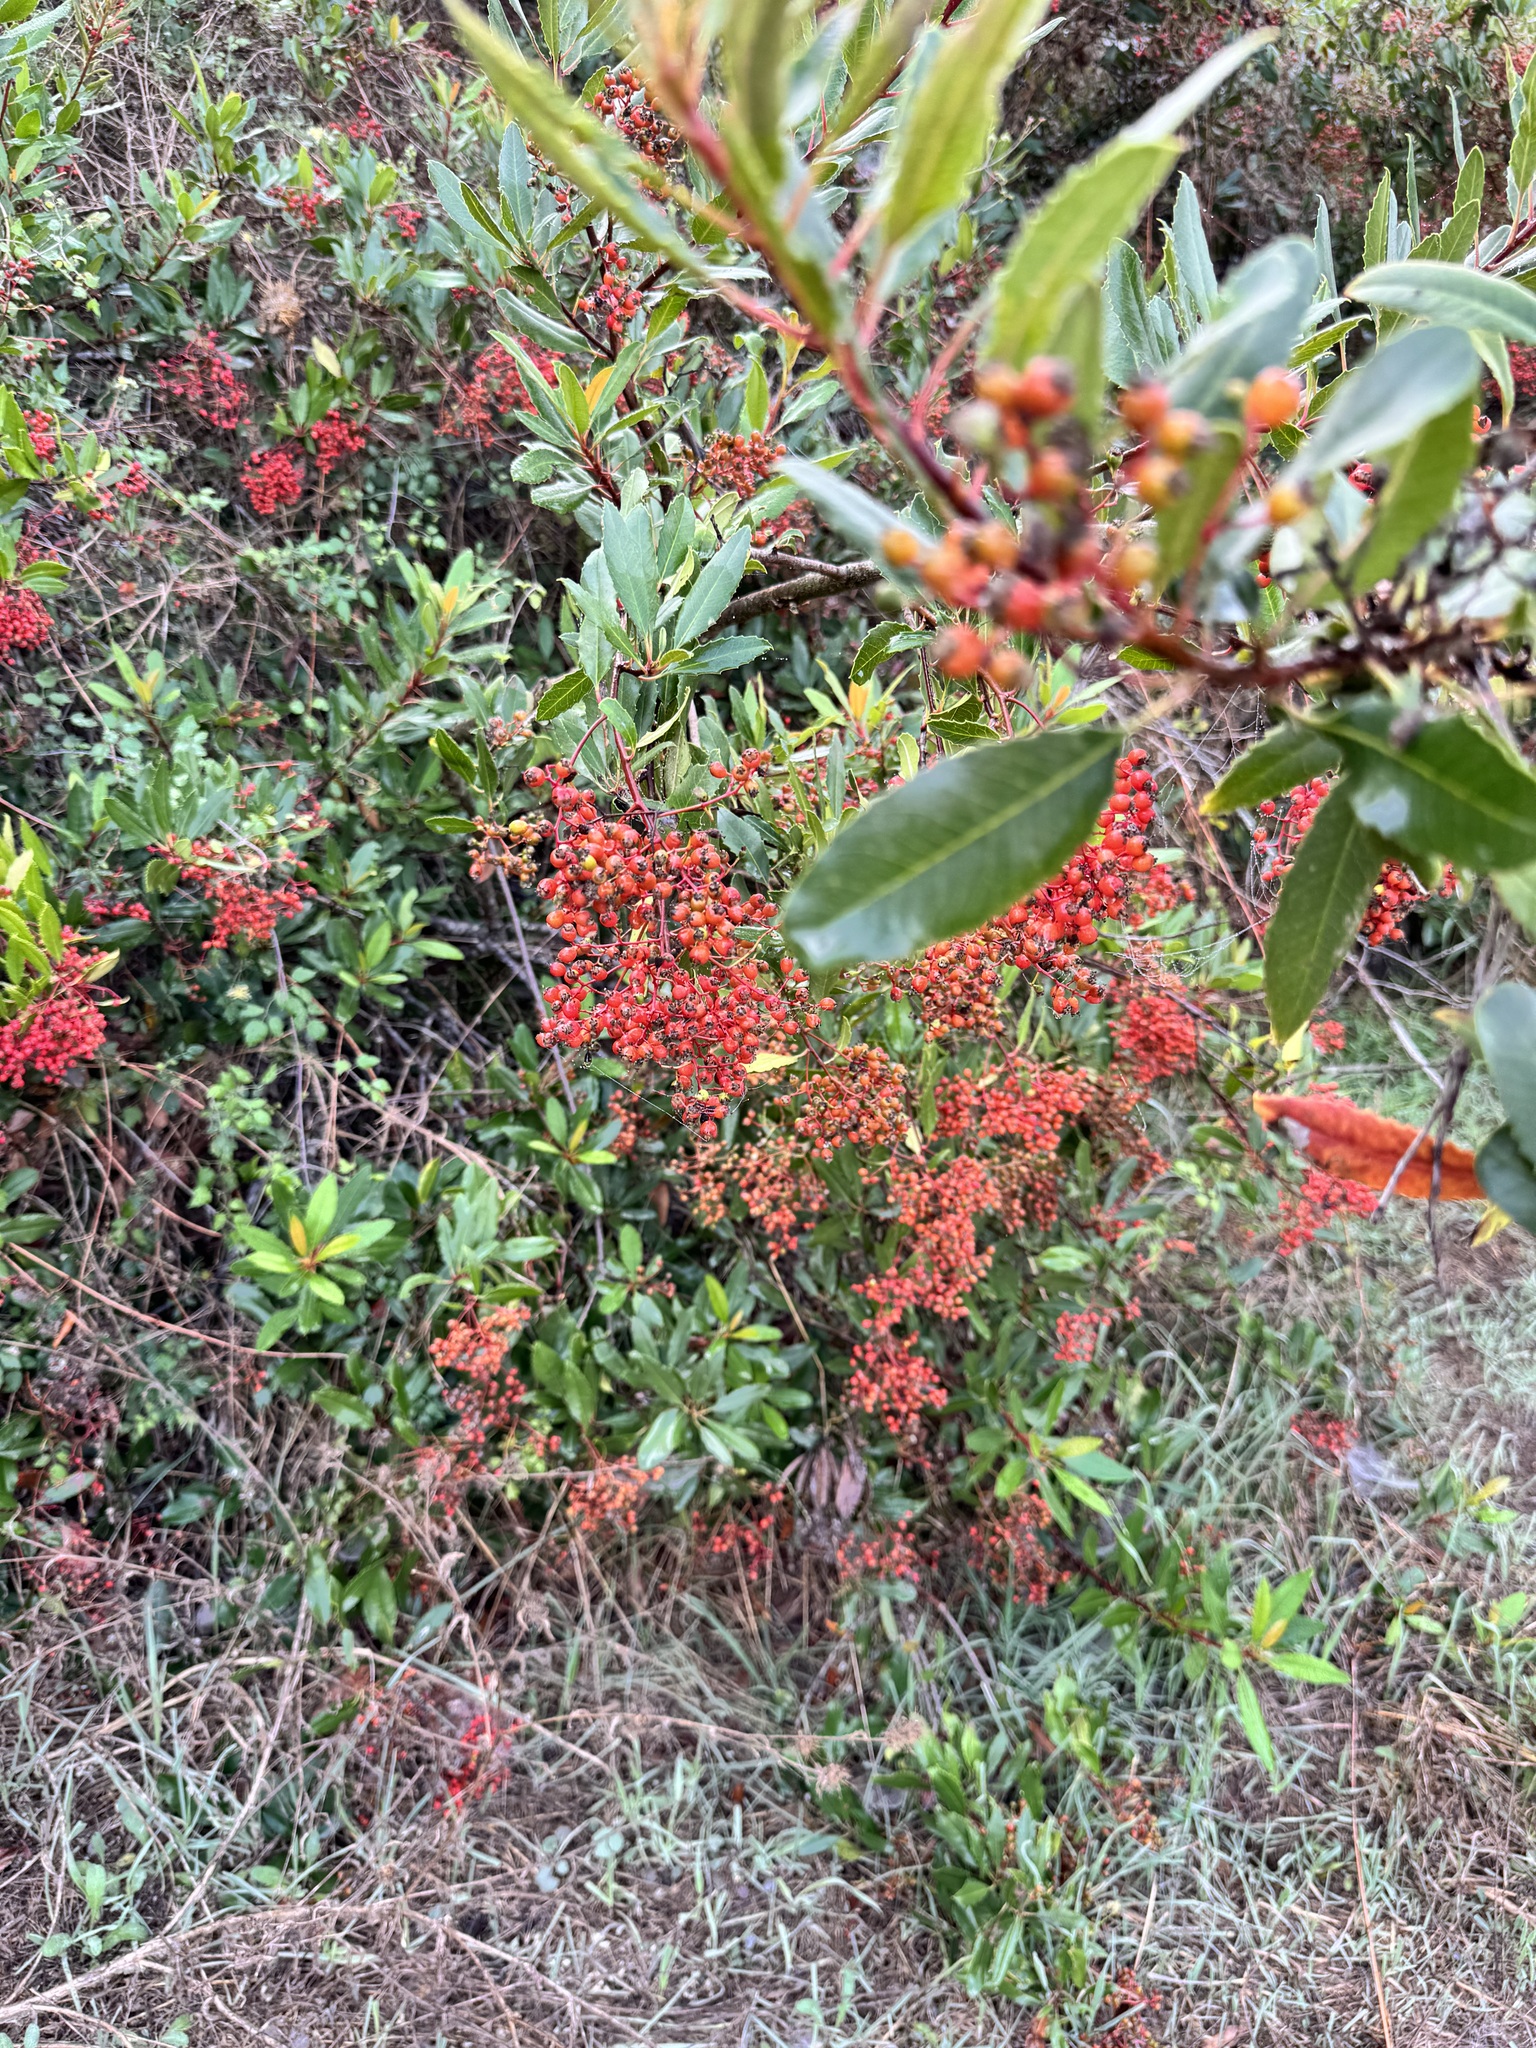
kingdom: Plantae
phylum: Tracheophyta
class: Magnoliopsida
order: Rosales
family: Rosaceae
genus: Heteromeles
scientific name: Heteromeles arbutifolia
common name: California-holly
